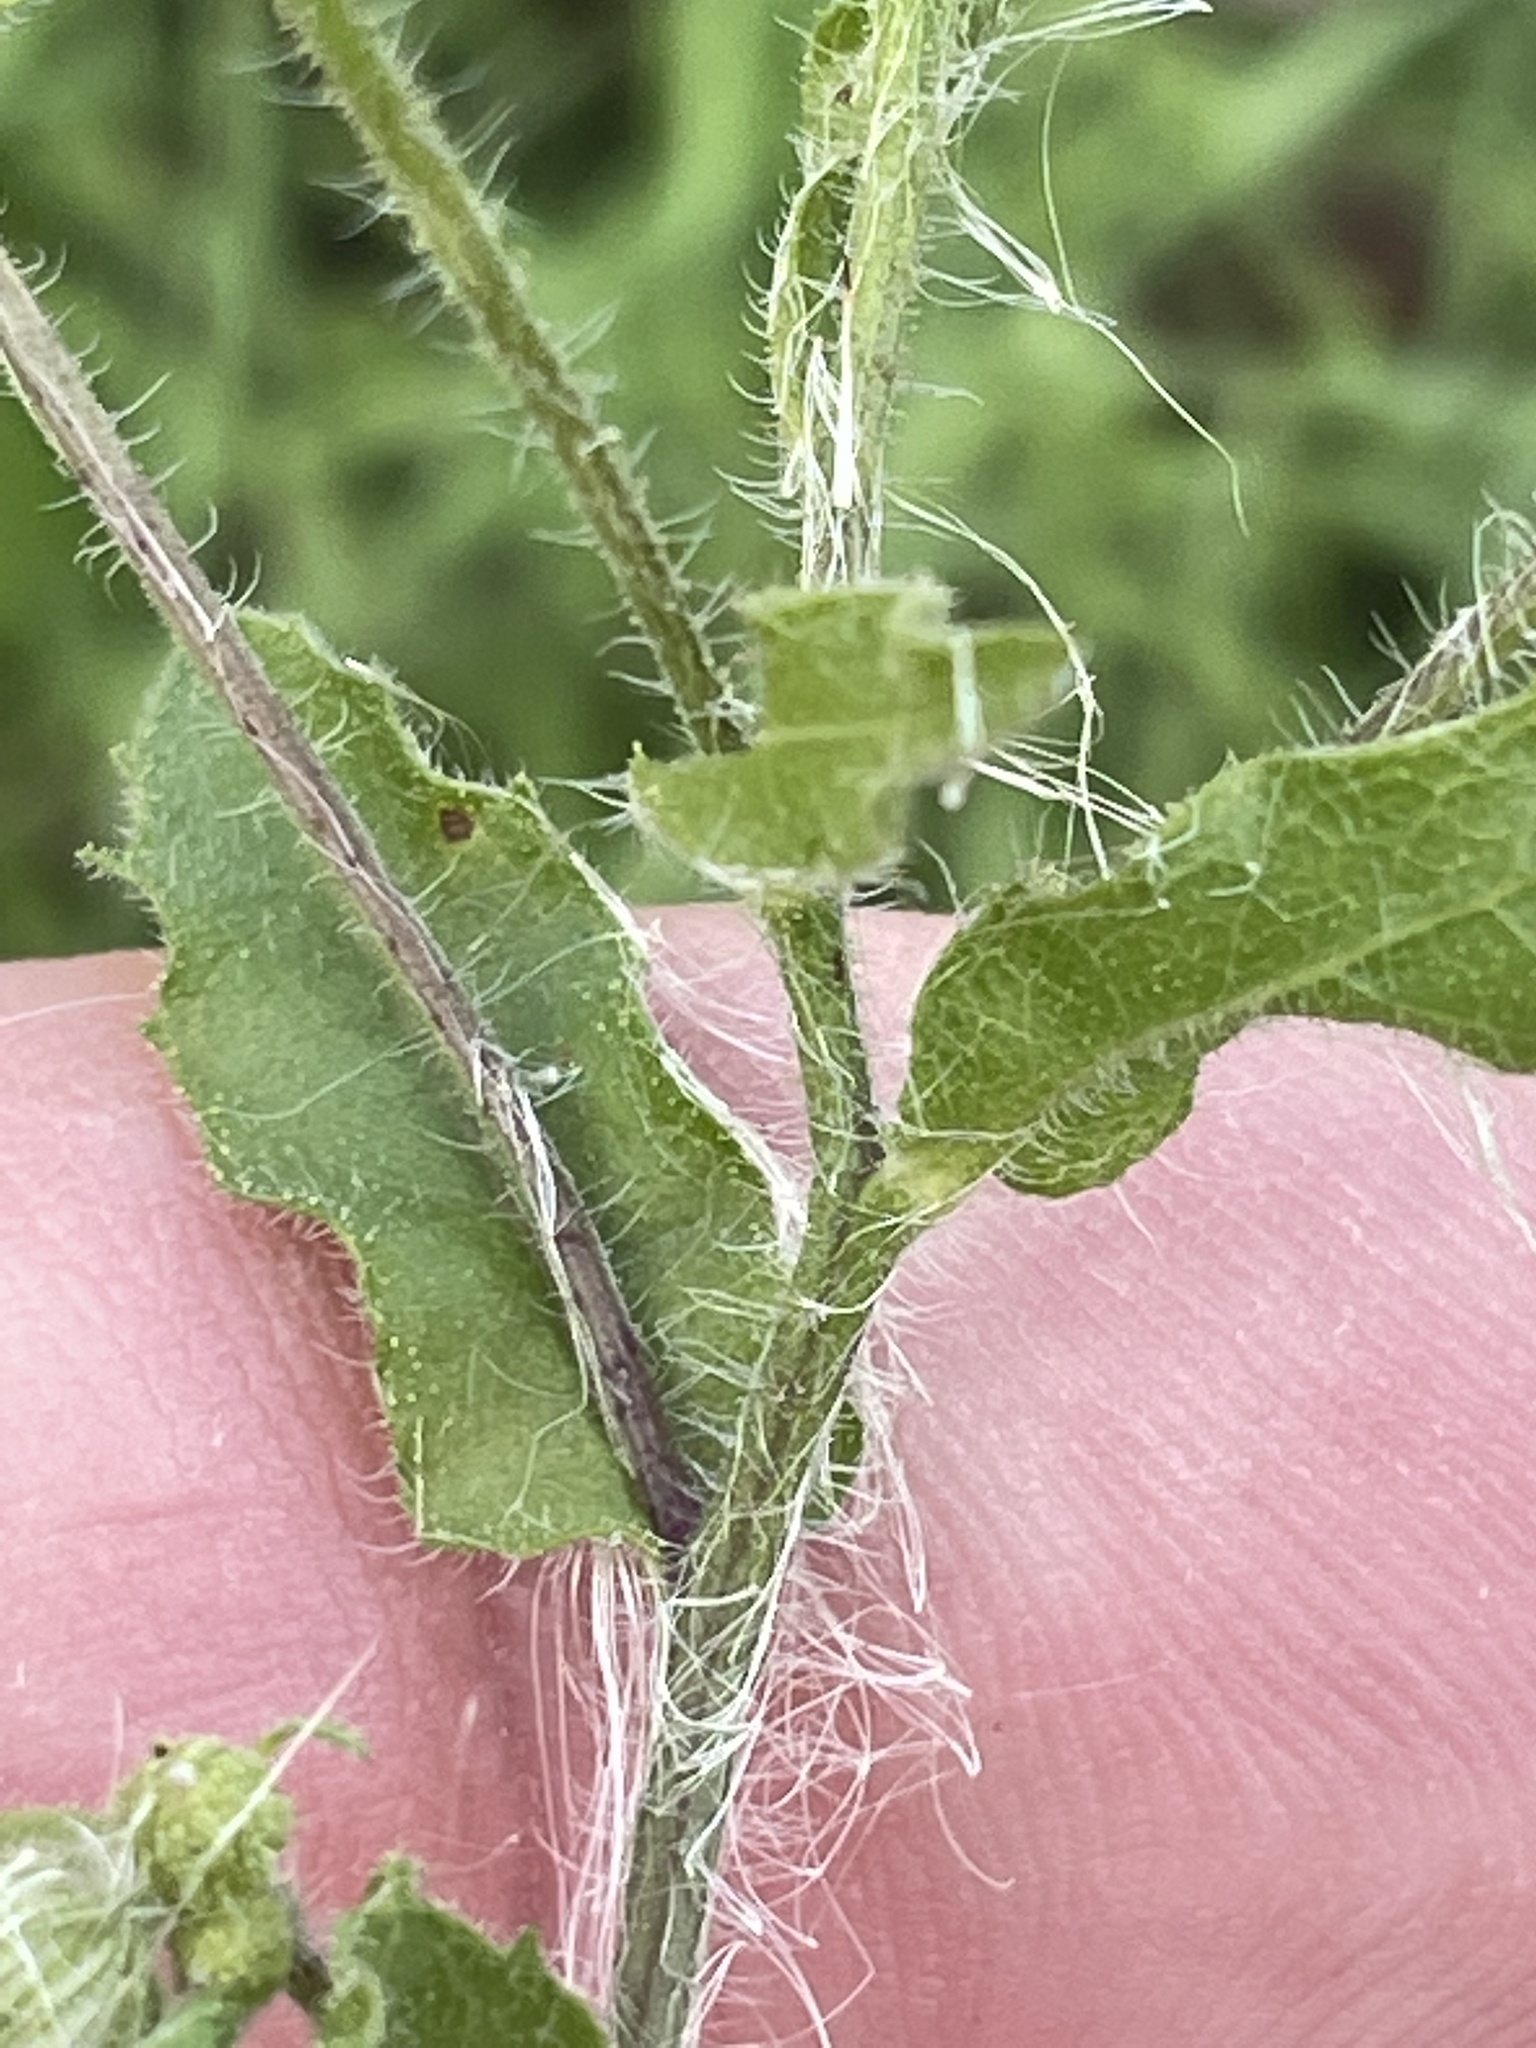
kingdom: Plantae
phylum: Tracheophyta
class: Magnoliopsida
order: Asterales
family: Asteraceae
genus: Heterotheca
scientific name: Heterotheca subaxillaris
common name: Camphorweed
